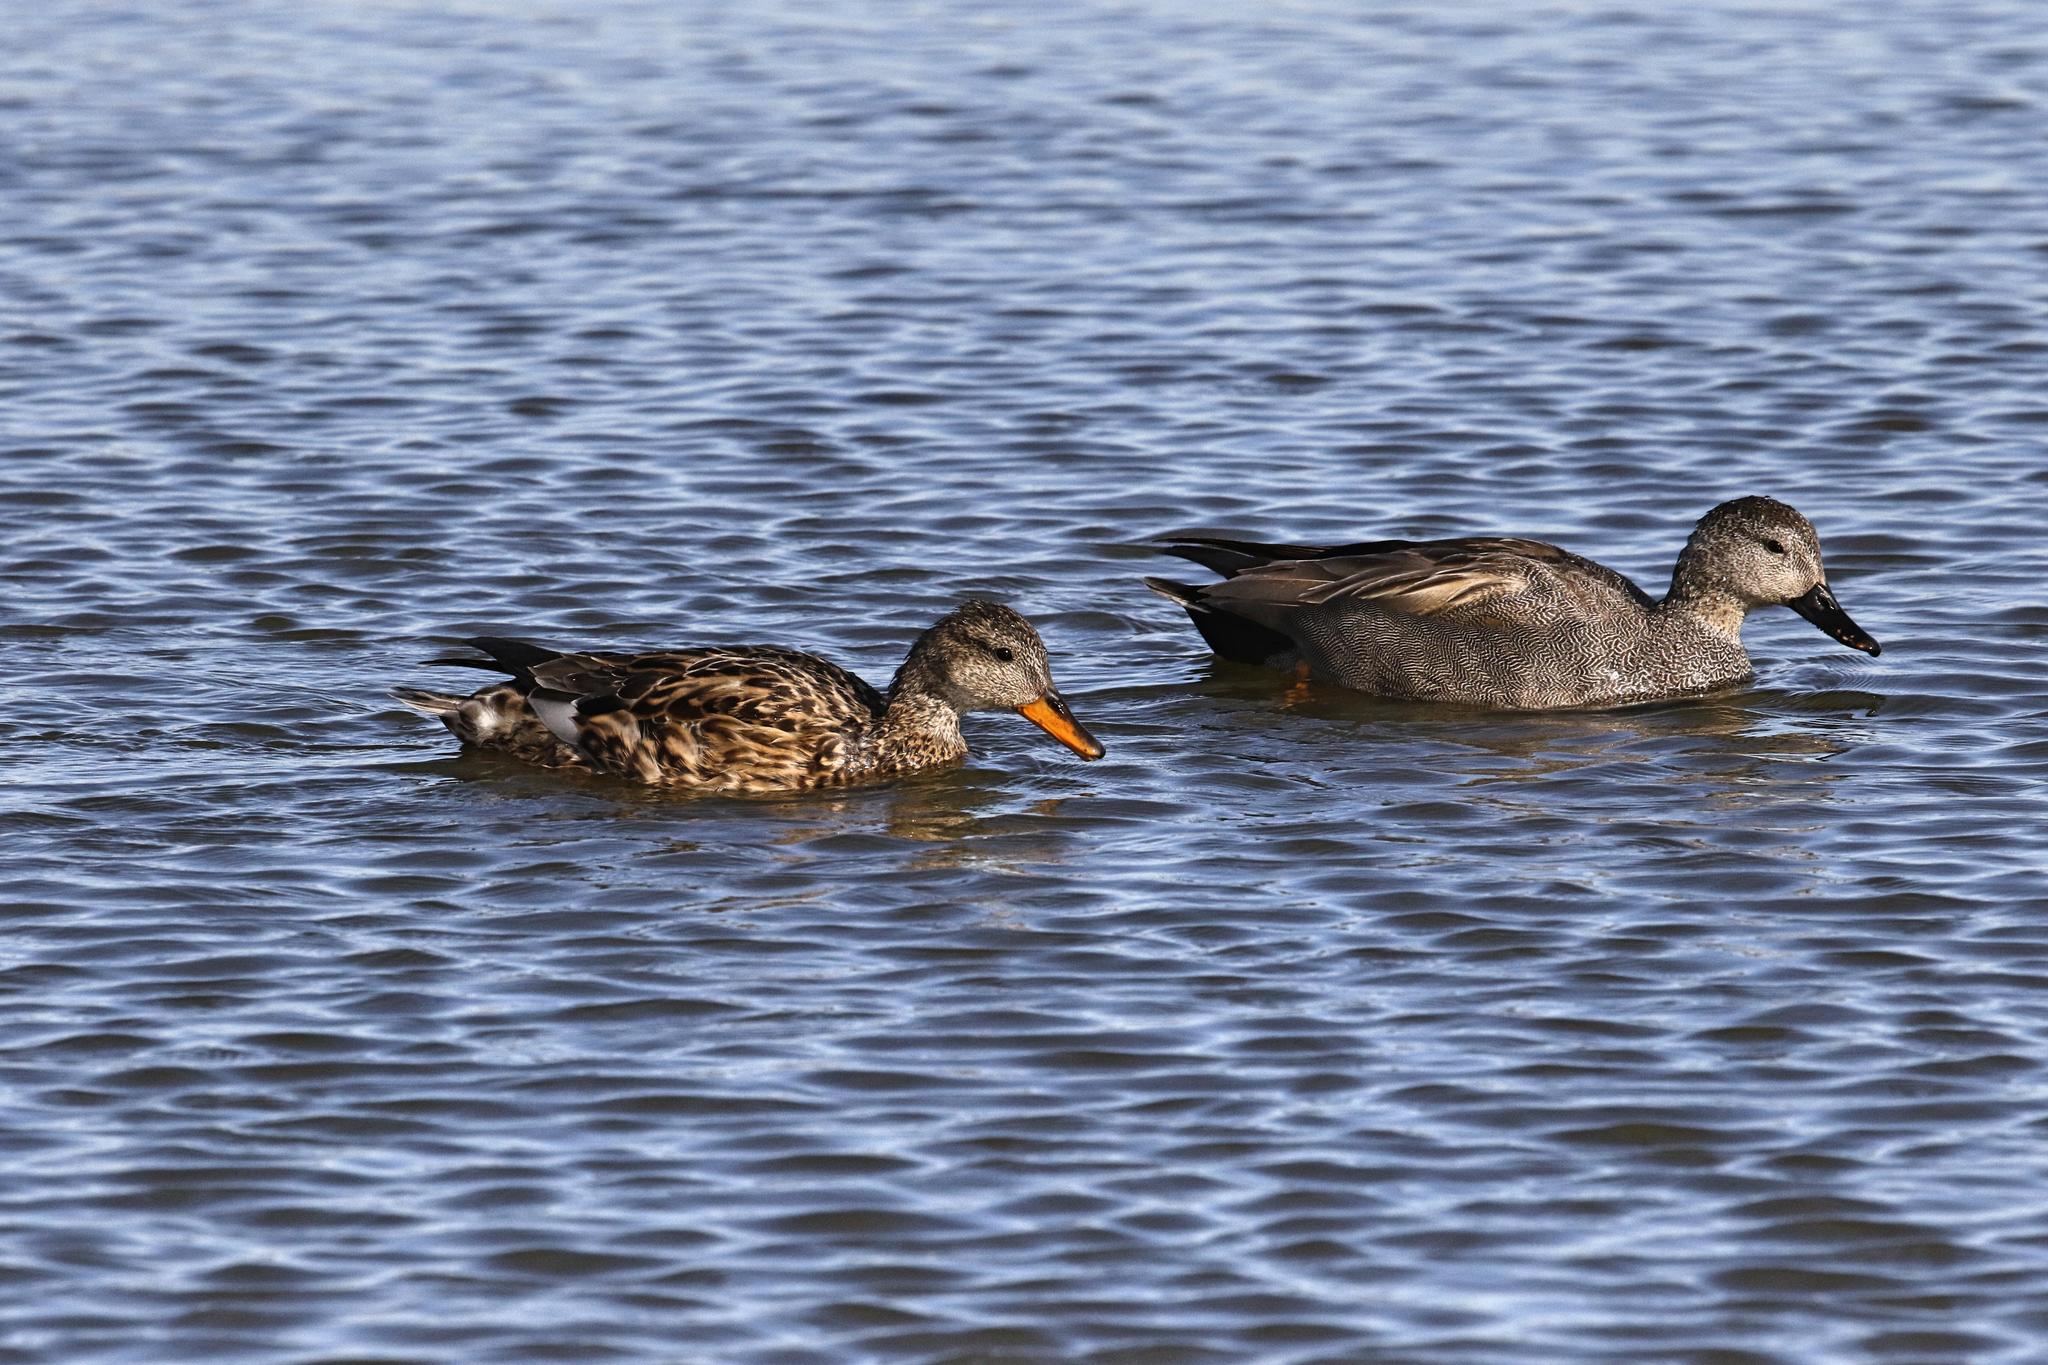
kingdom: Animalia
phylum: Chordata
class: Aves
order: Anseriformes
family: Anatidae
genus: Mareca
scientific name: Mareca strepera
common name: Gadwall
